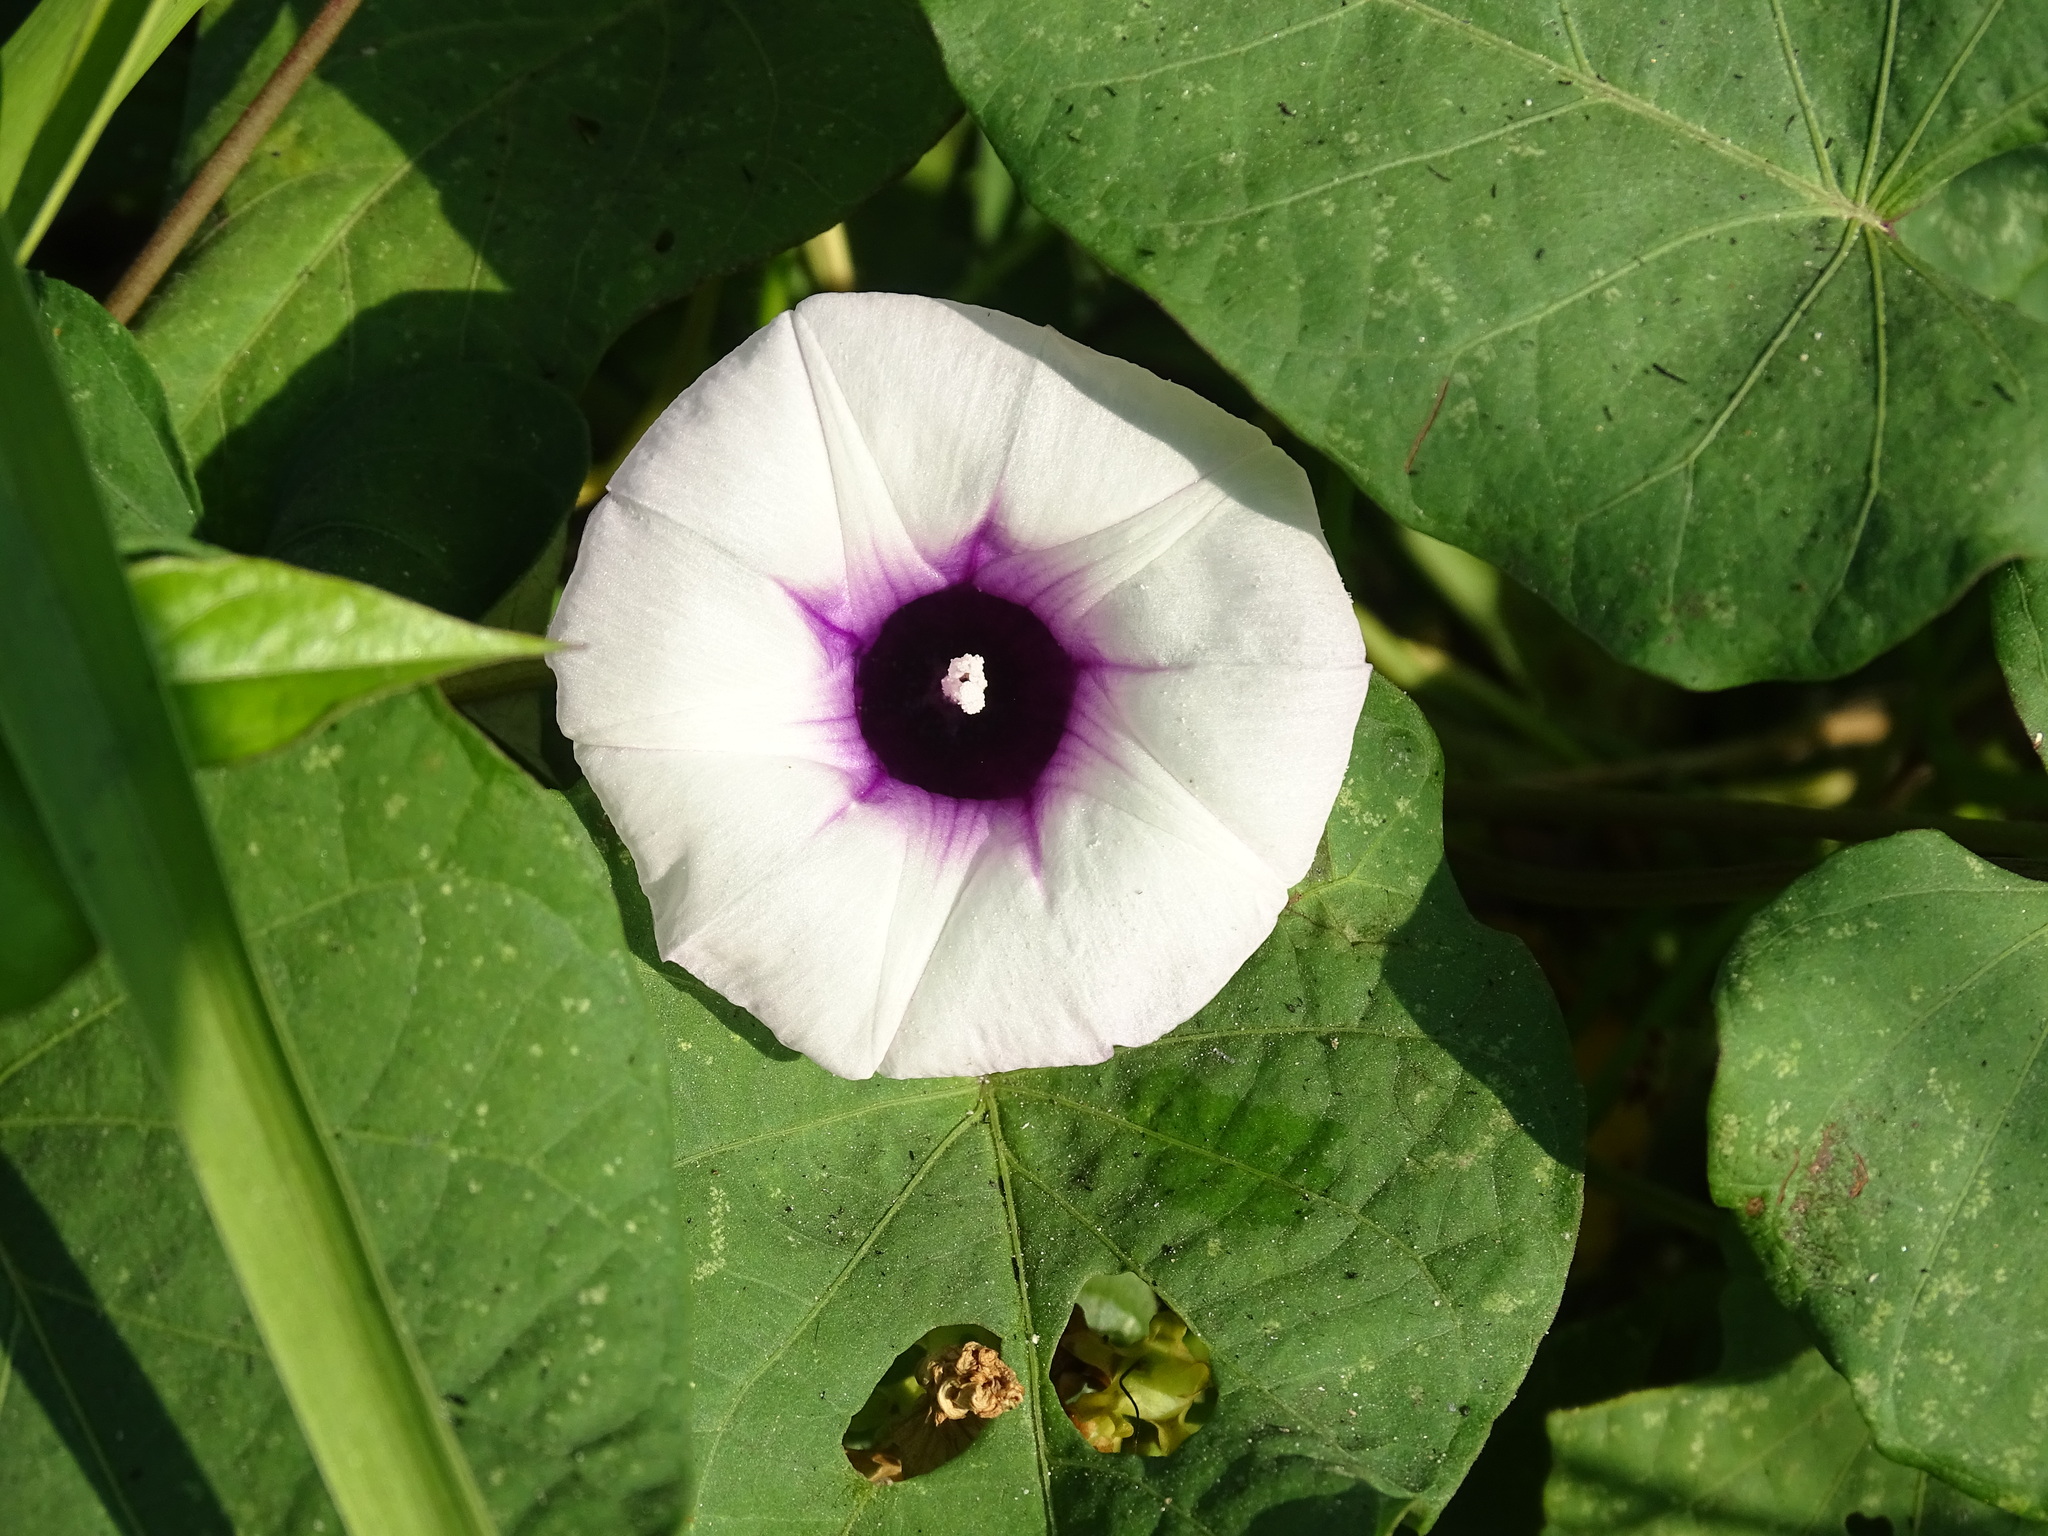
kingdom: Plantae
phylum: Tracheophyta
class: Magnoliopsida
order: Solanales
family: Convolvulaceae
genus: Ipomoea
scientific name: Ipomoea batatas
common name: Sweet-potato
